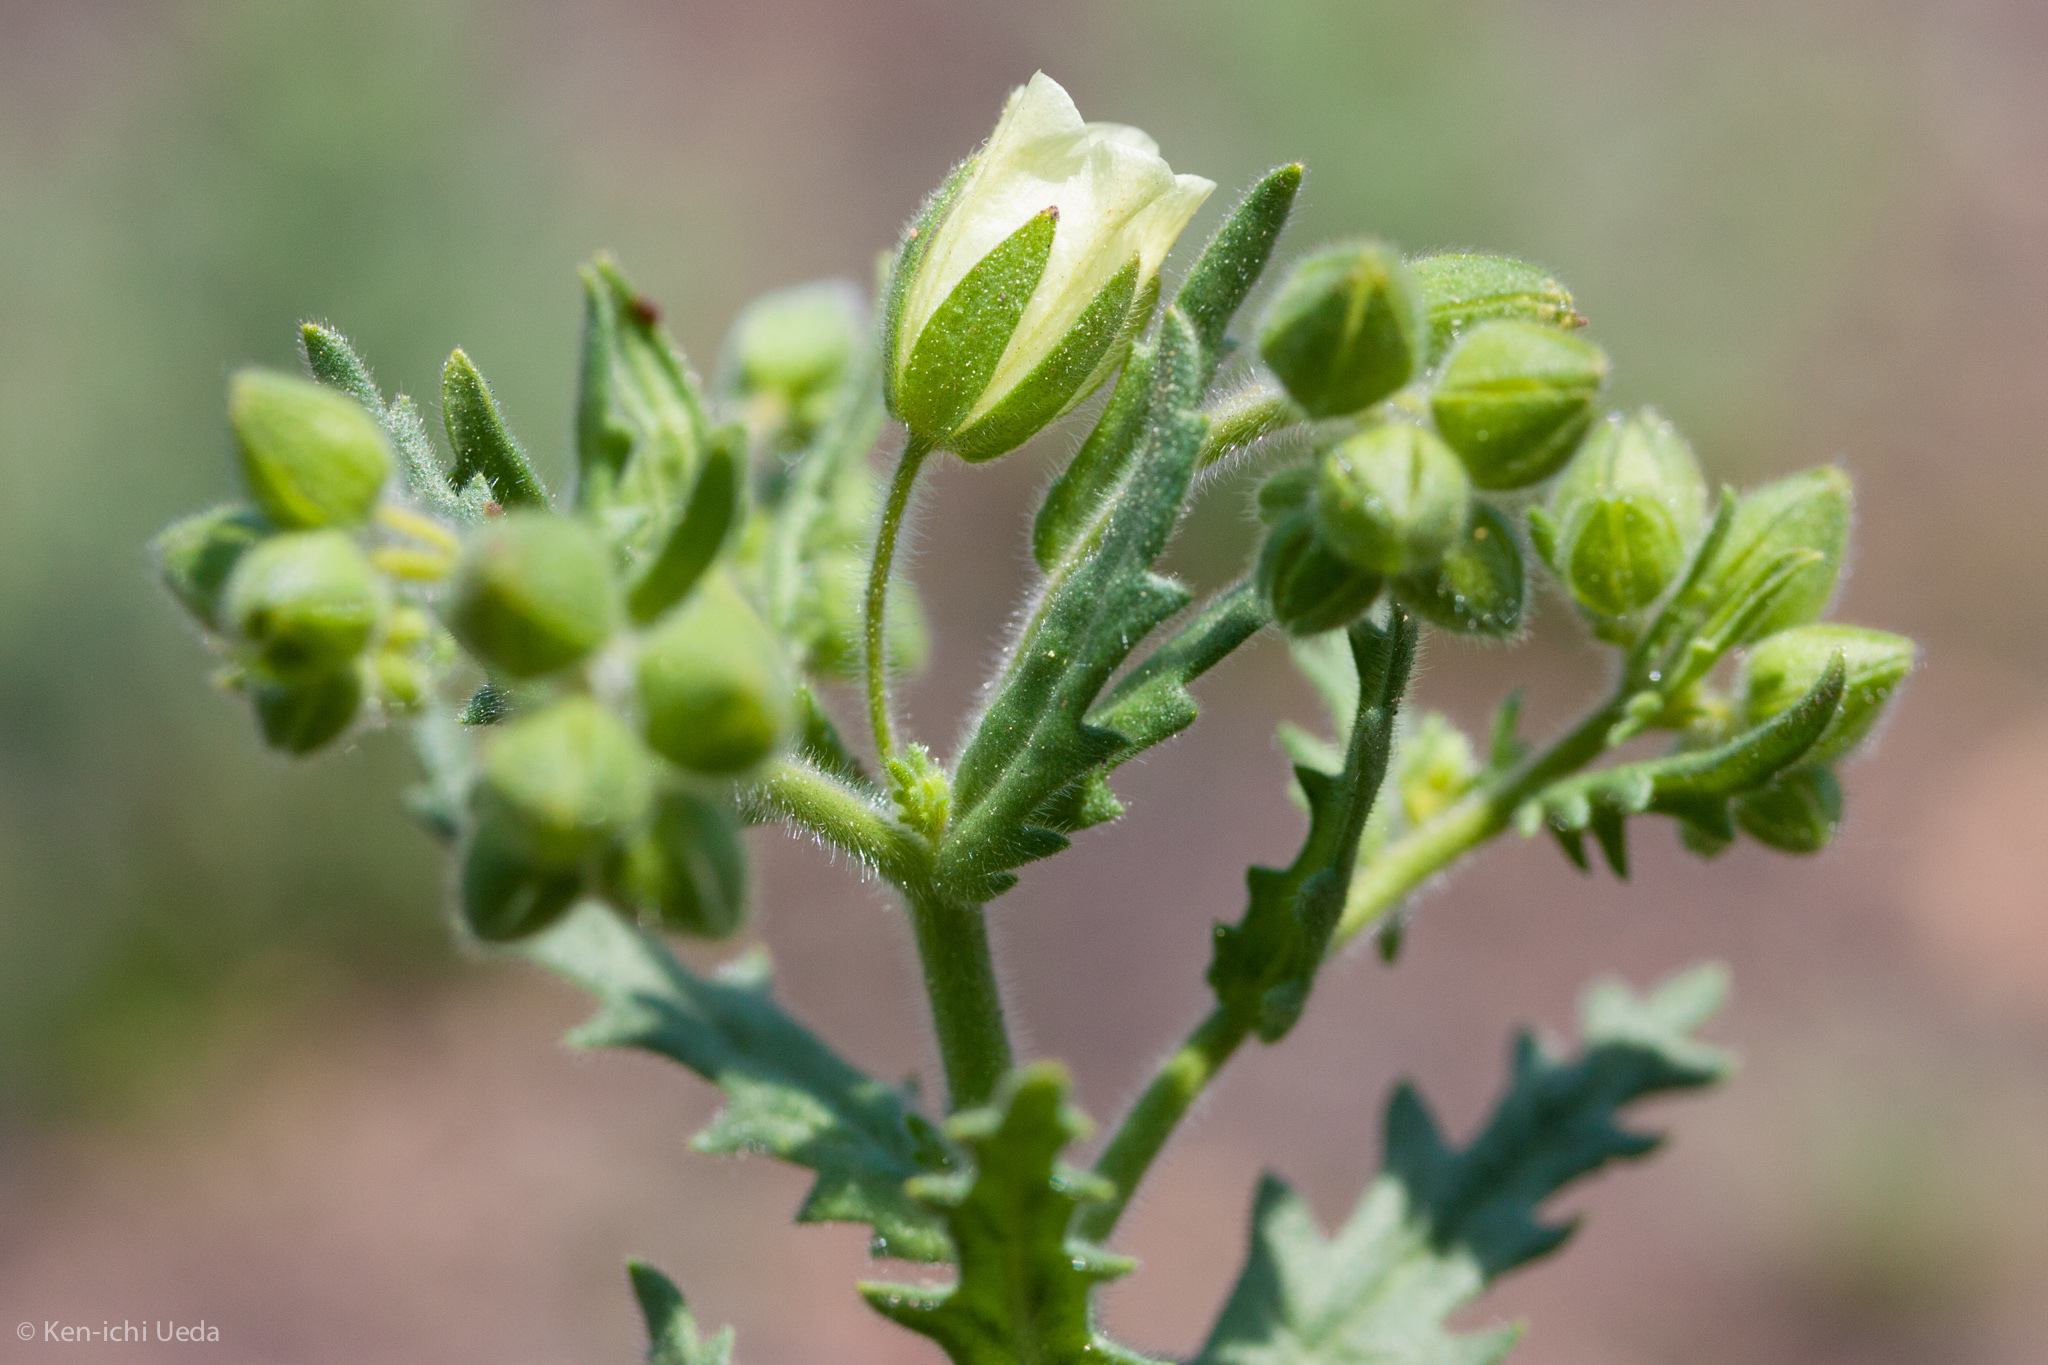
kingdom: Plantae
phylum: Tracheophyta
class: Magnoliopsida
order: Boraginales
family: Hydrophyllaceae
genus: Emmenanthe
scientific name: Emmenanthe penduliflora
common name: Whispering-bells
